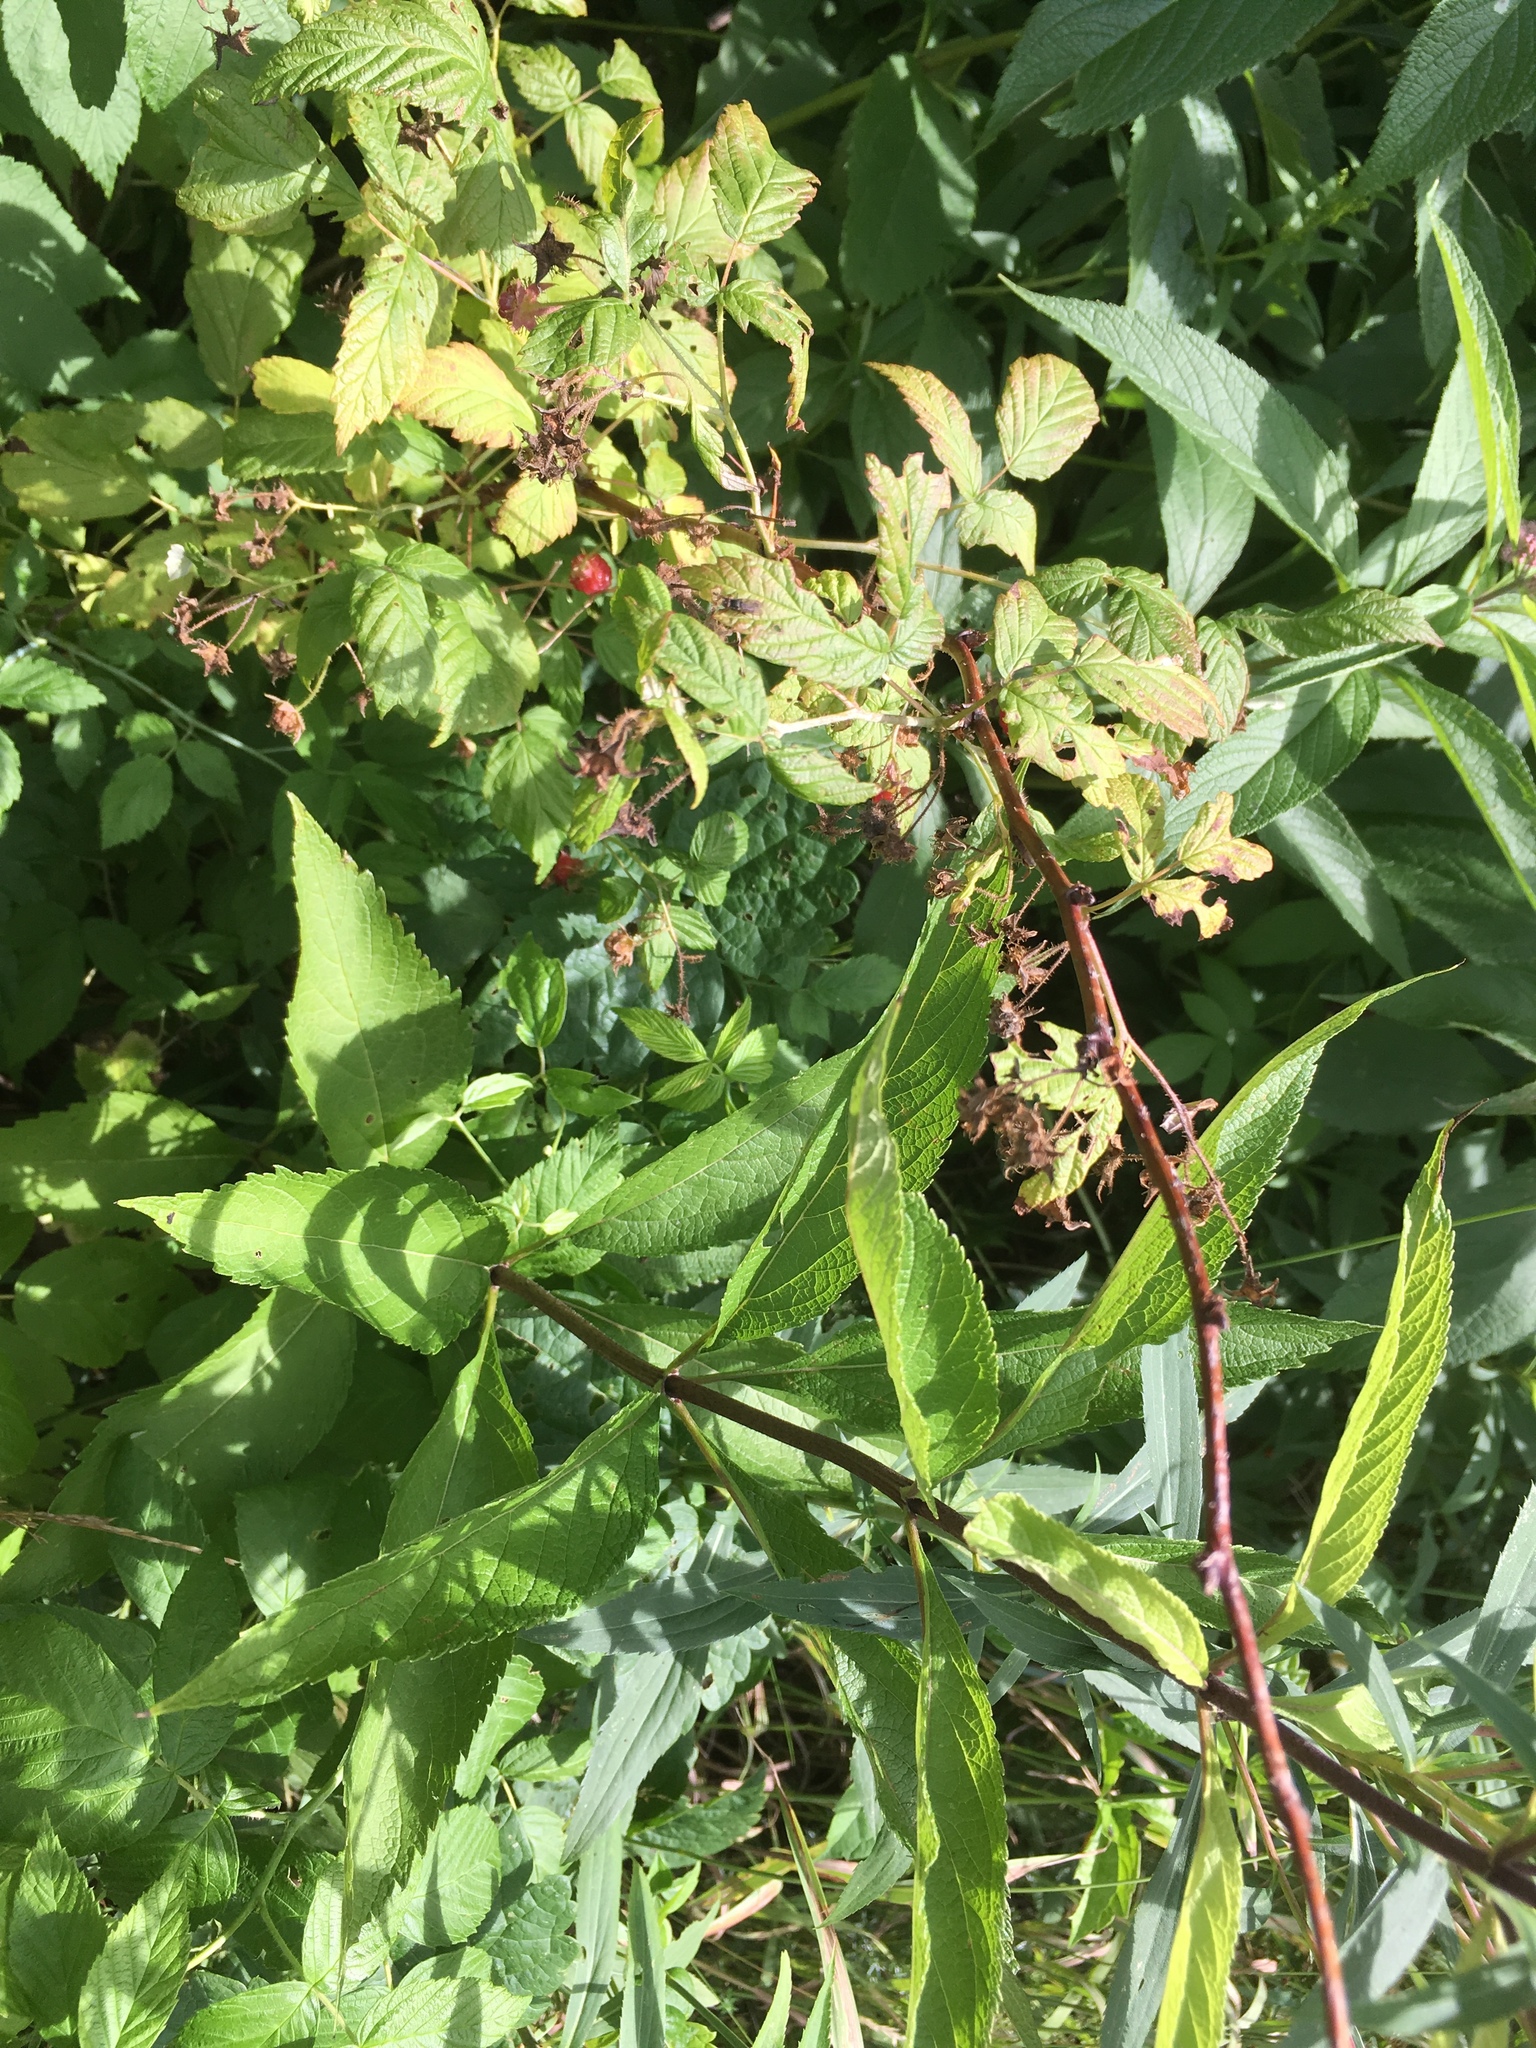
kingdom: Plantae
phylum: Tracheophyta
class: Magnoliopsida
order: Rosales
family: Rosaceae
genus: Rubus
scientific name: Rubus occidentalis
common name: Black raspberry
